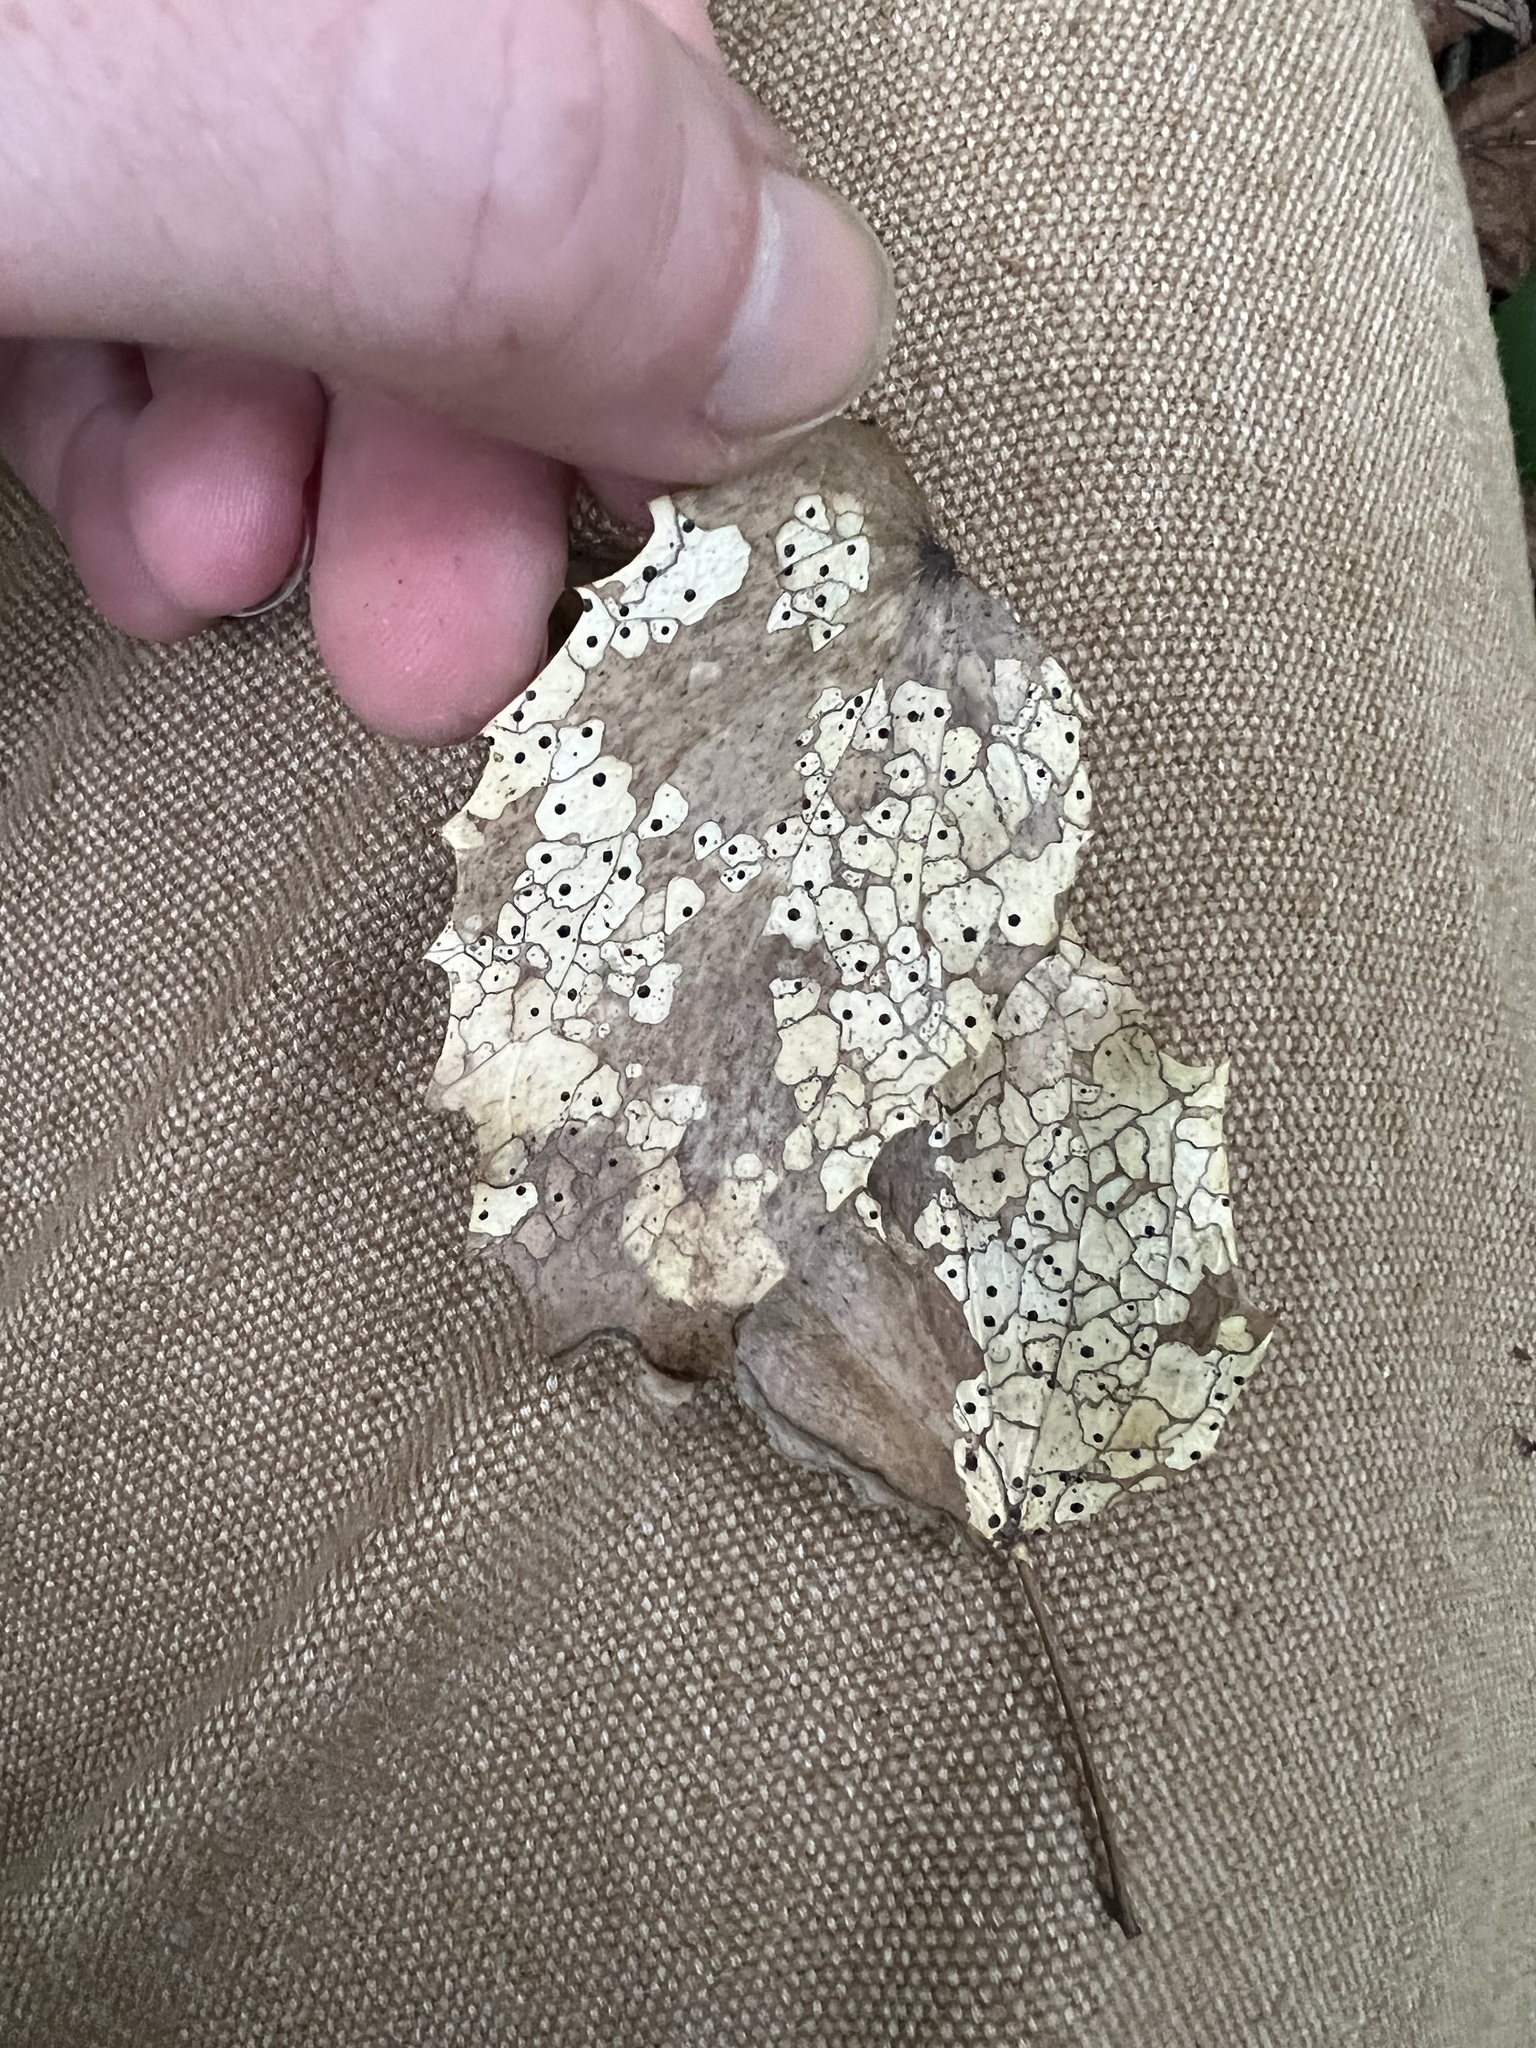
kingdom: Fungi
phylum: Ascomycota
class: Leotiomycetes
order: Rhytismatales
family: Rhytismataceae
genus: Coccomyces
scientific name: Coccomyces dentatus
